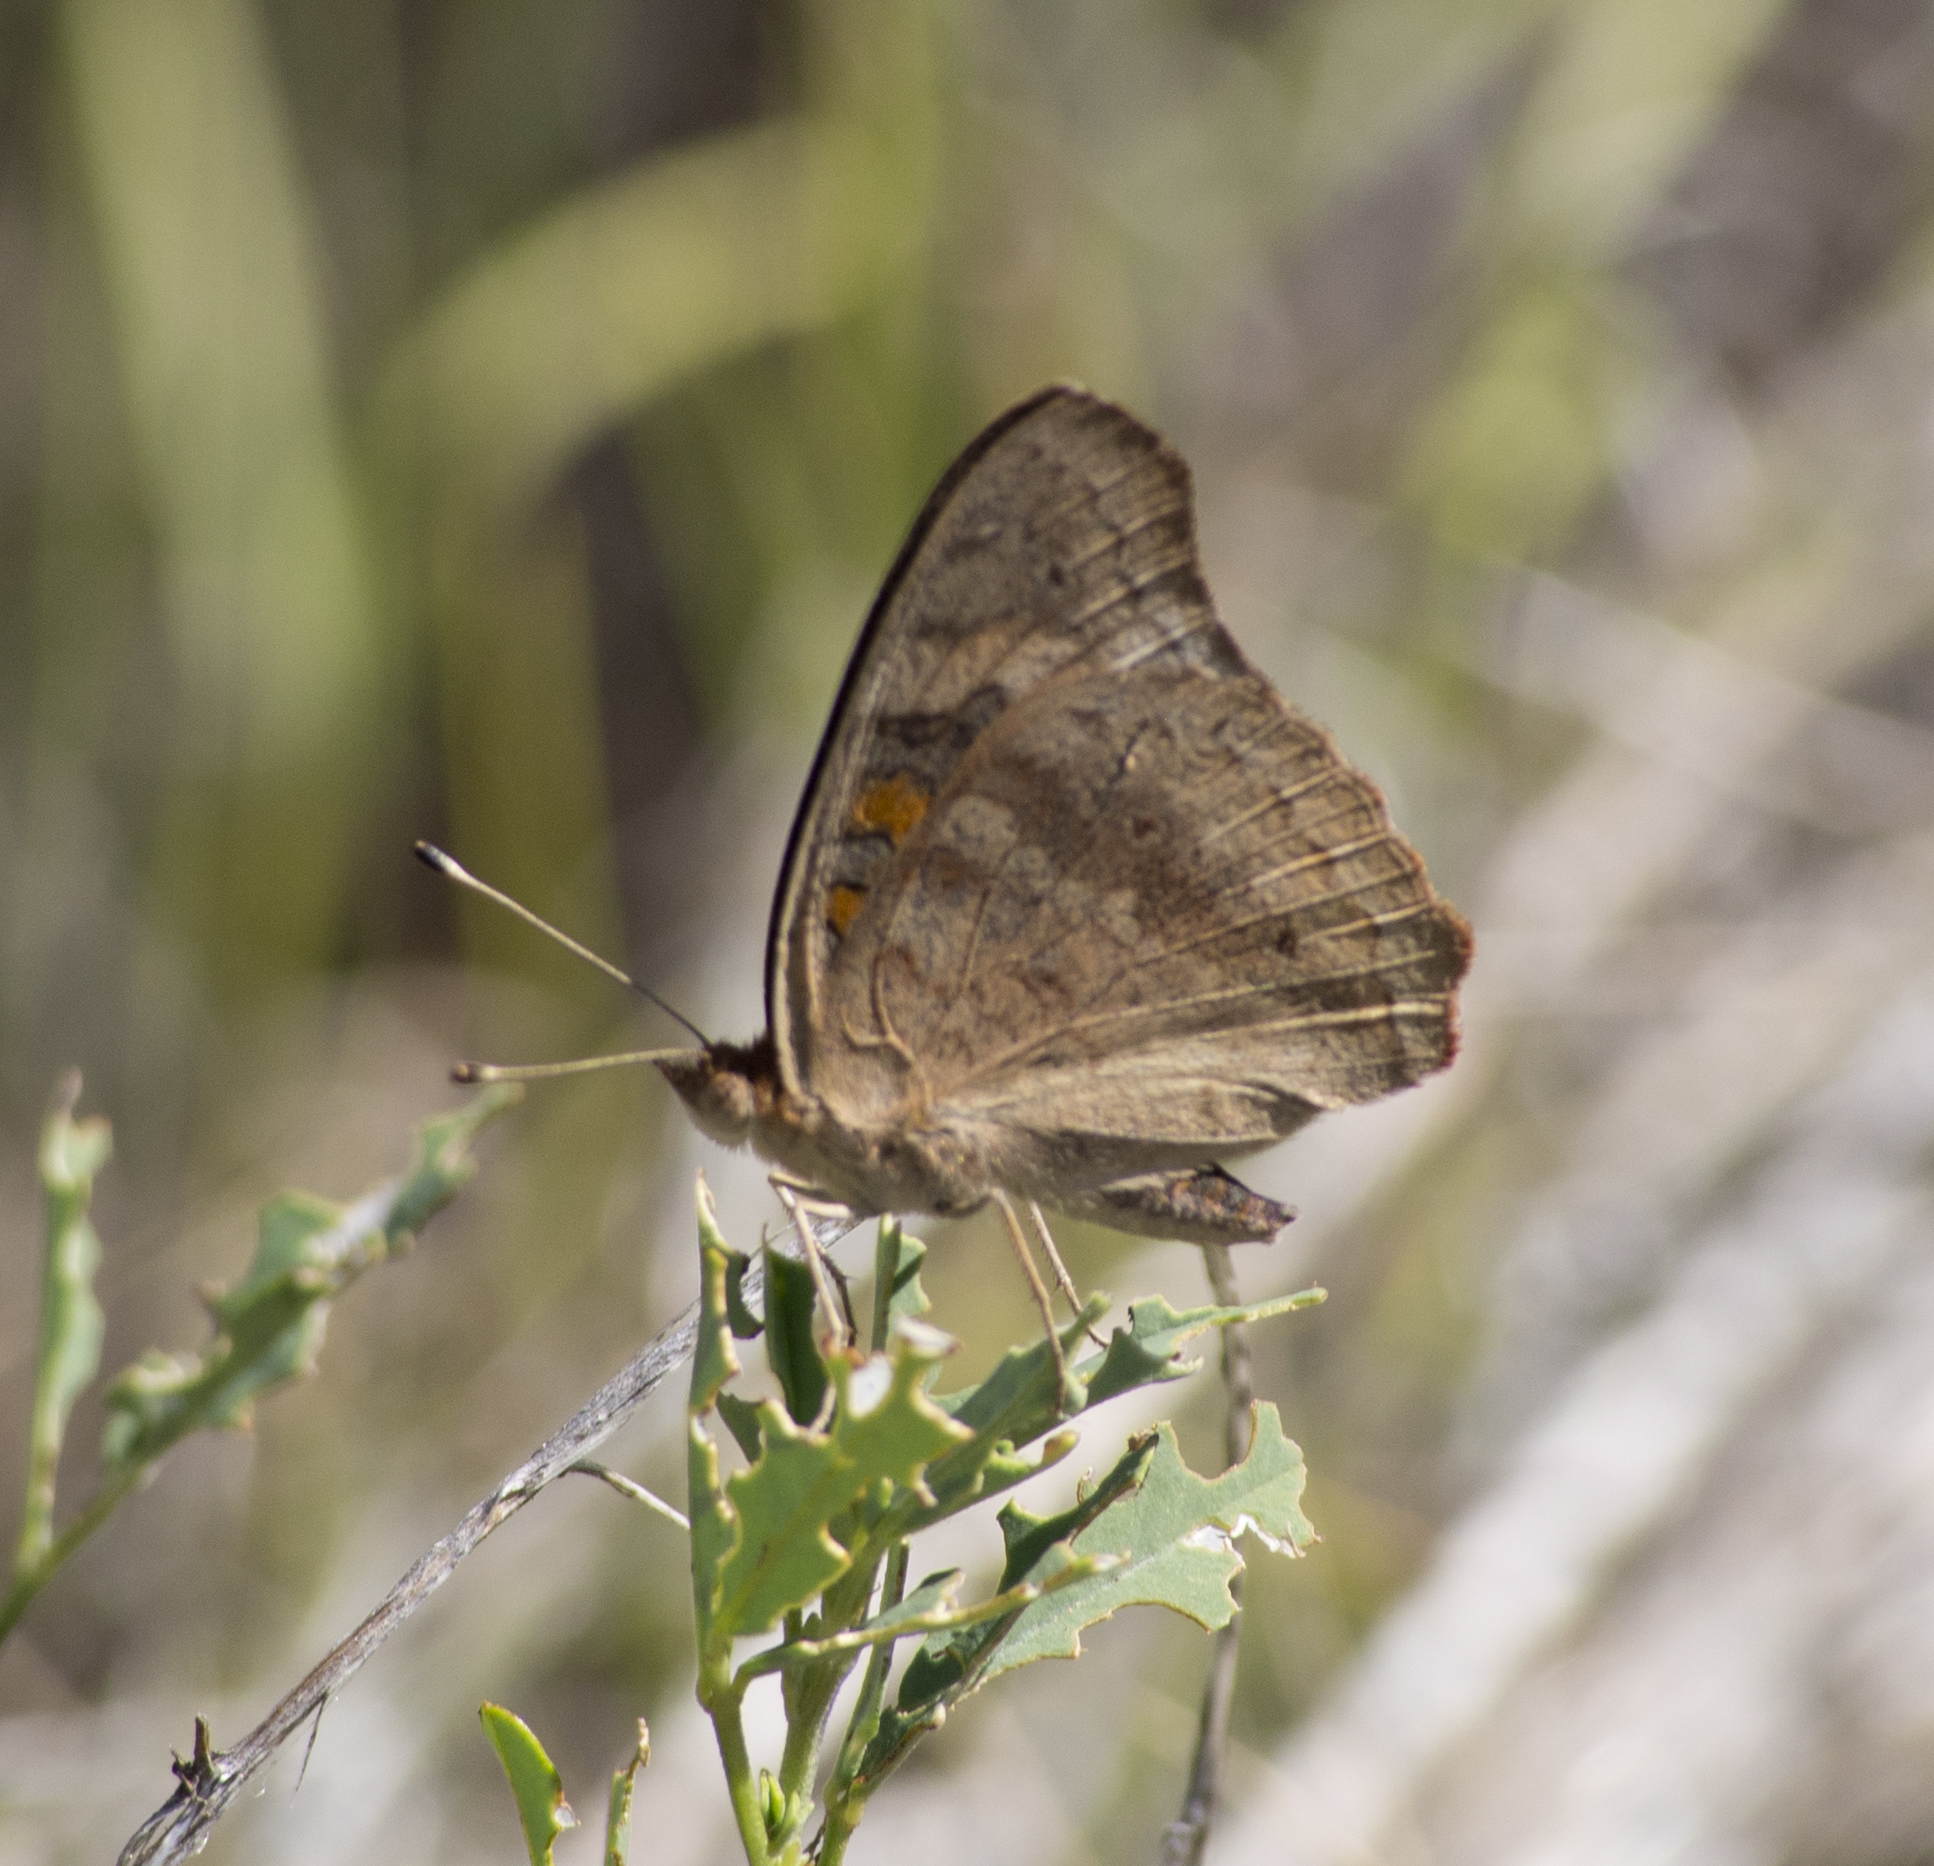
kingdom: Animalia
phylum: Arthropoda
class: Insecta
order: Lepidoptera
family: Nymphalidae
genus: Junonia
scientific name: Junonia grisea
